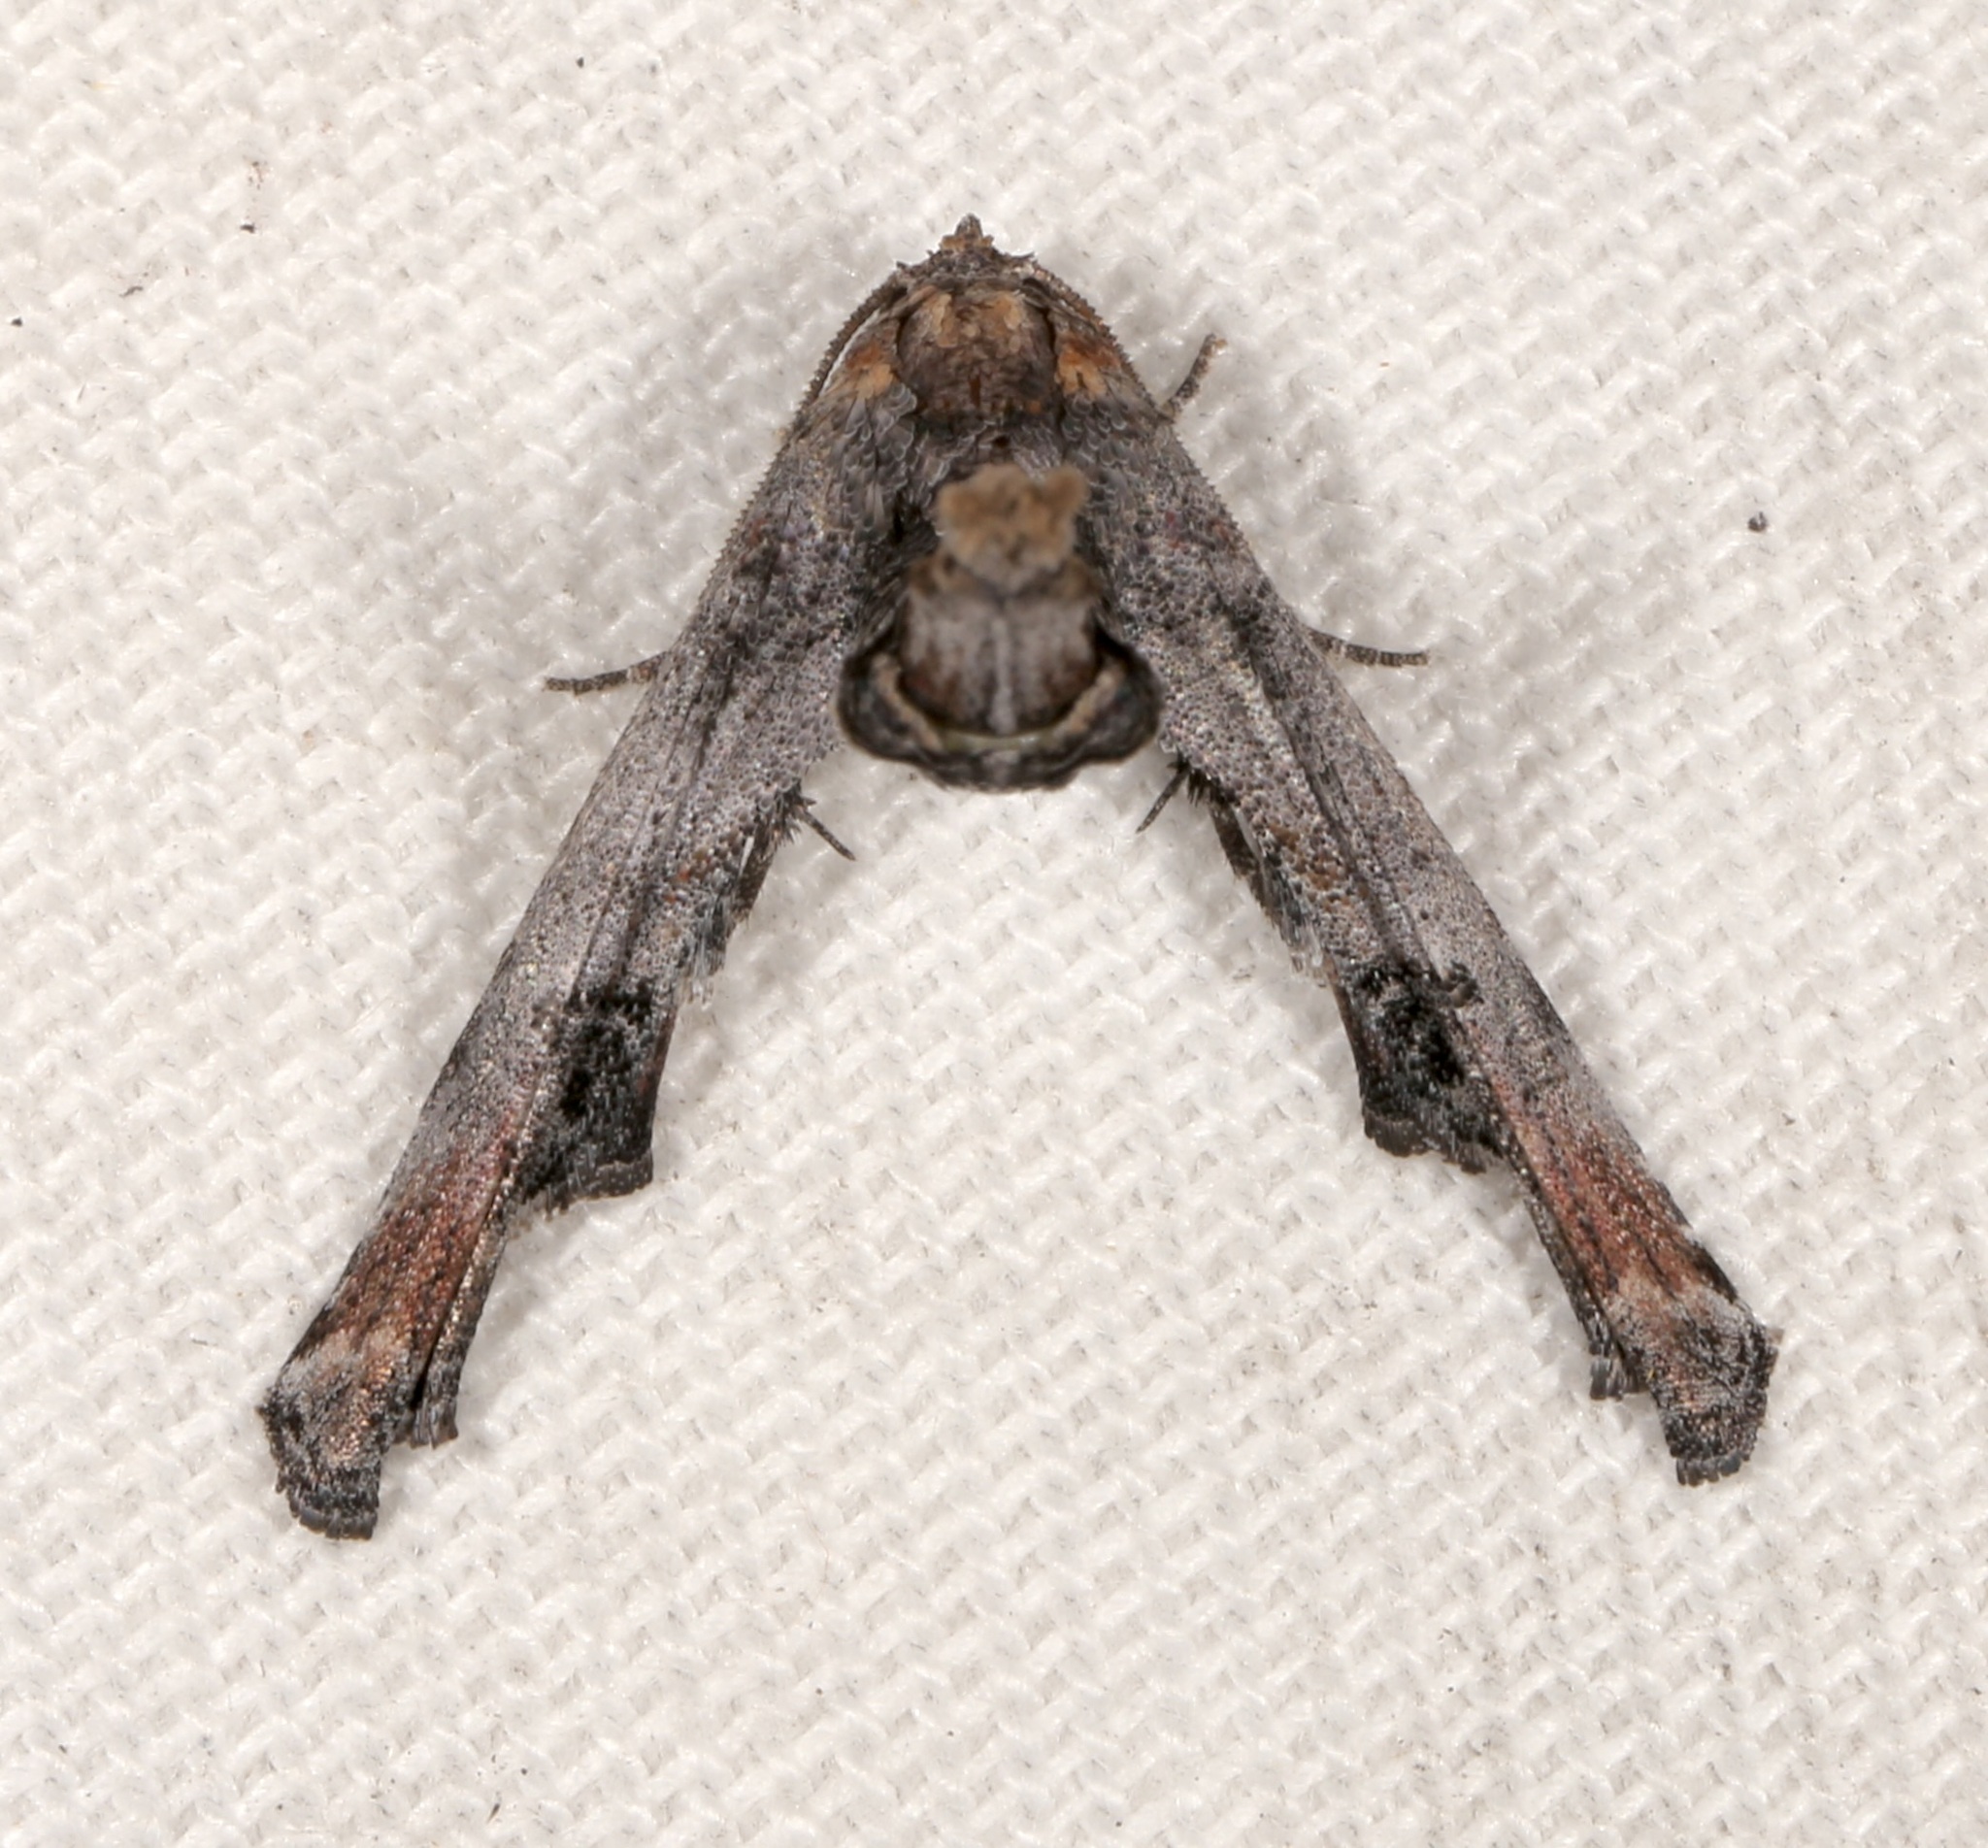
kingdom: Animalia
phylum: Arthropoda
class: Insecta
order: Lepidoptera
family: Euteliidae
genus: Marathyssa
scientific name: Marathyssa inficita
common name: Dark marathyssa moth
